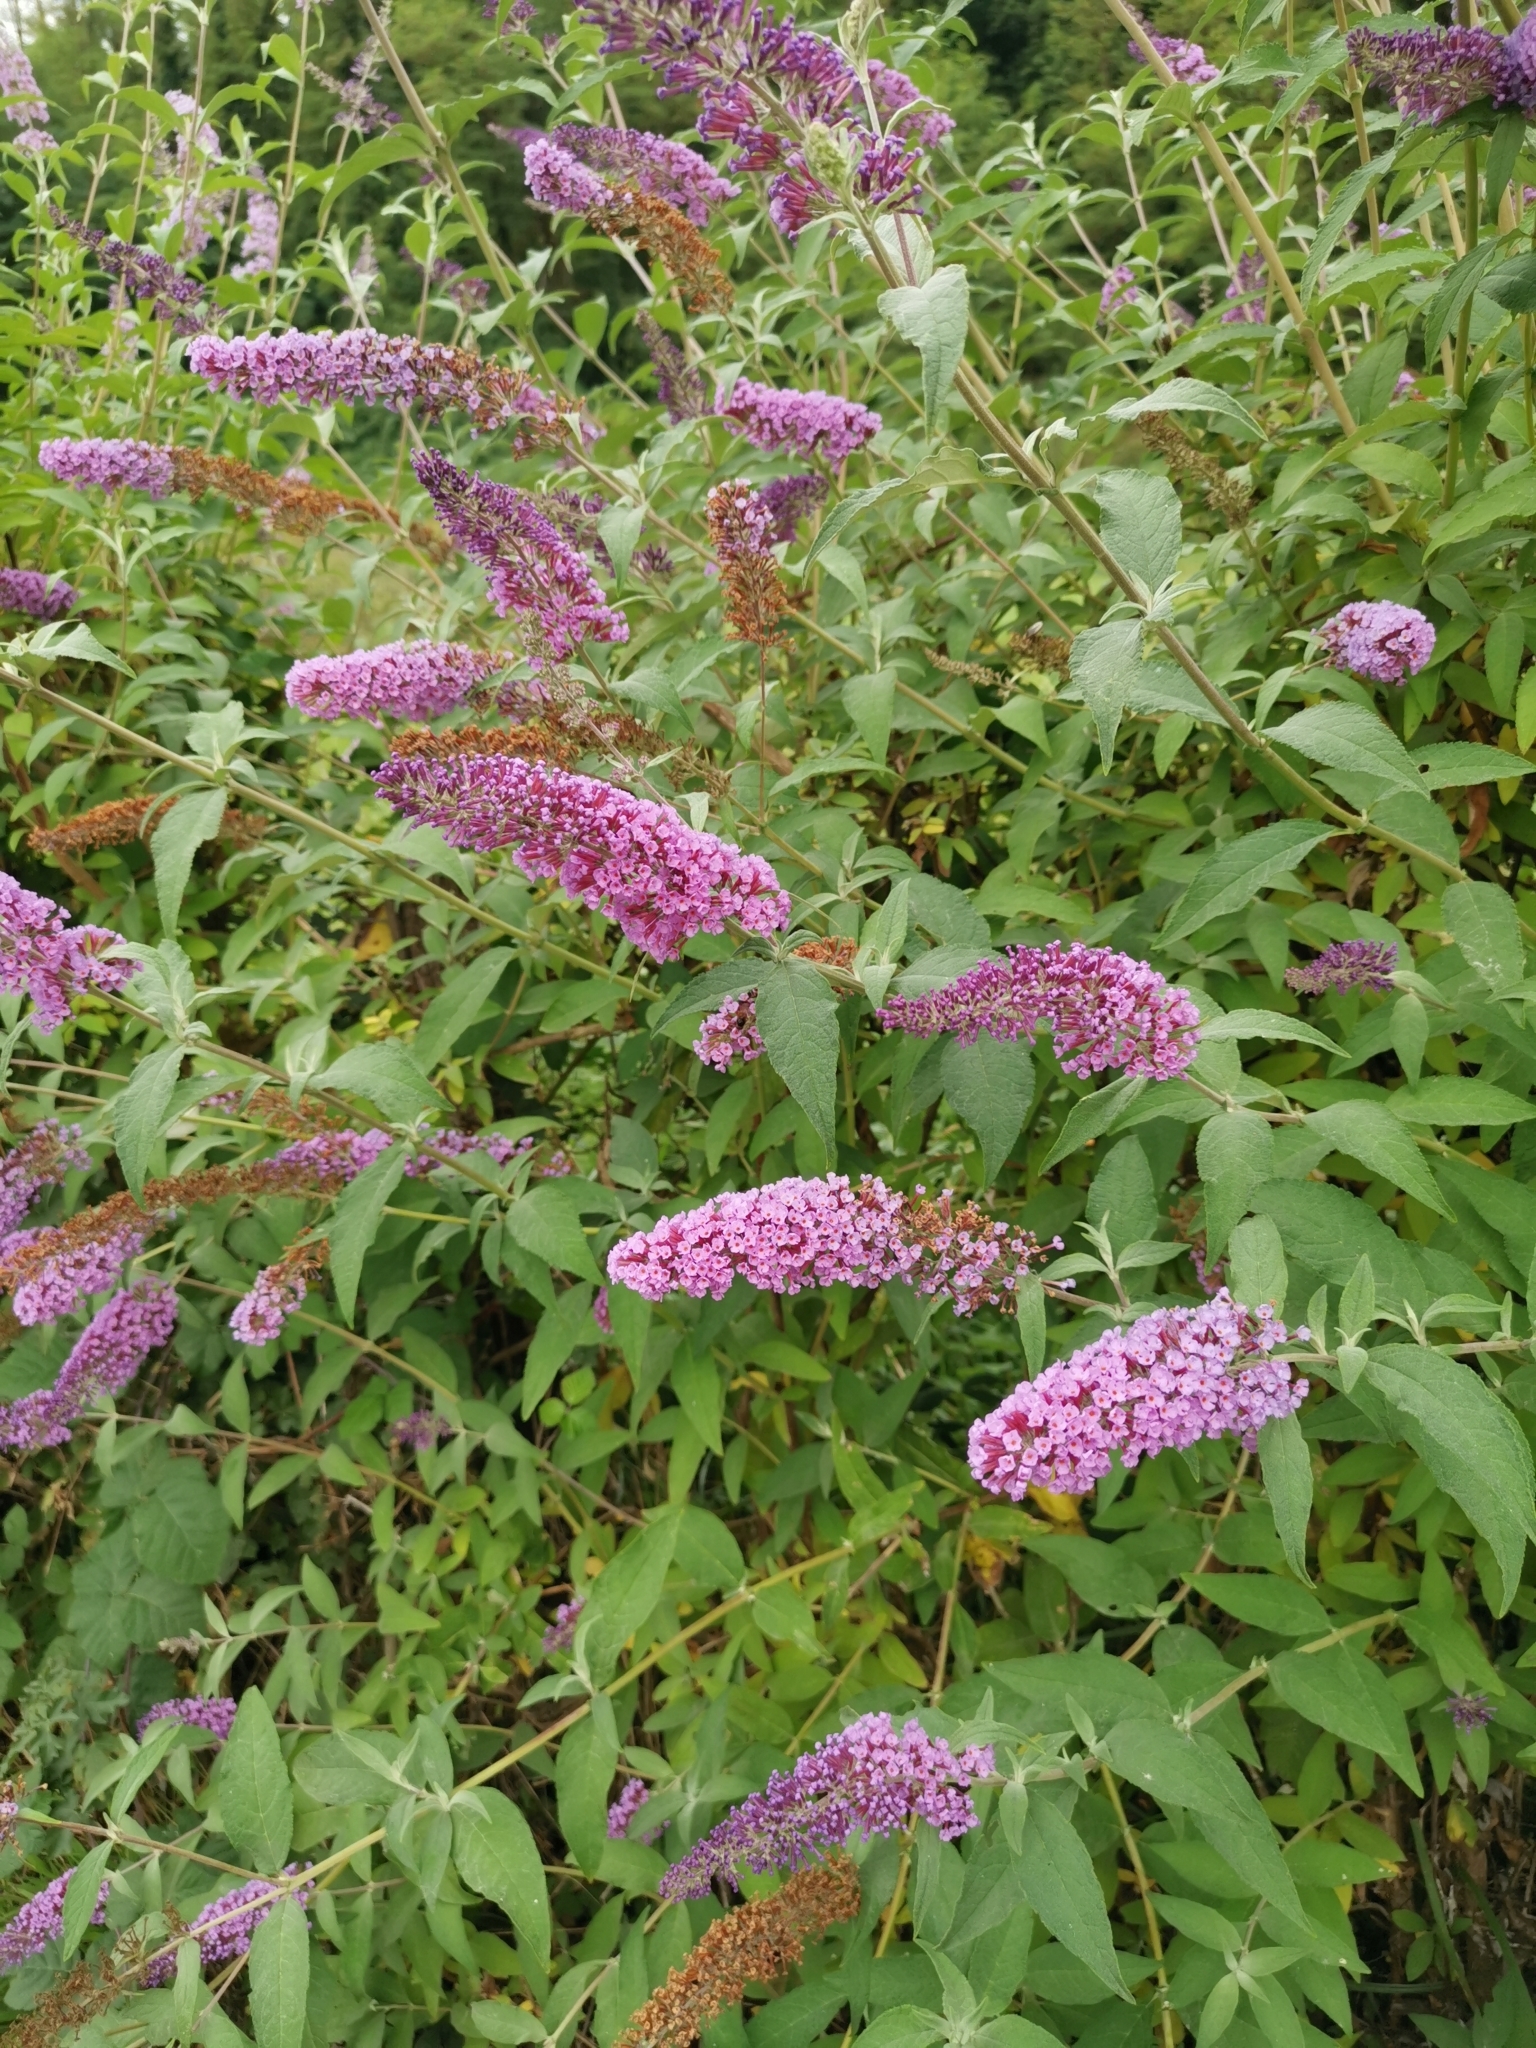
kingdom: Plantae
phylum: Tracheophyta
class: Magnoliopsida
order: Lamiales
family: Scrophulariaceae
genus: Buddleja
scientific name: Buddleja davidii
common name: Butterfly-bush
